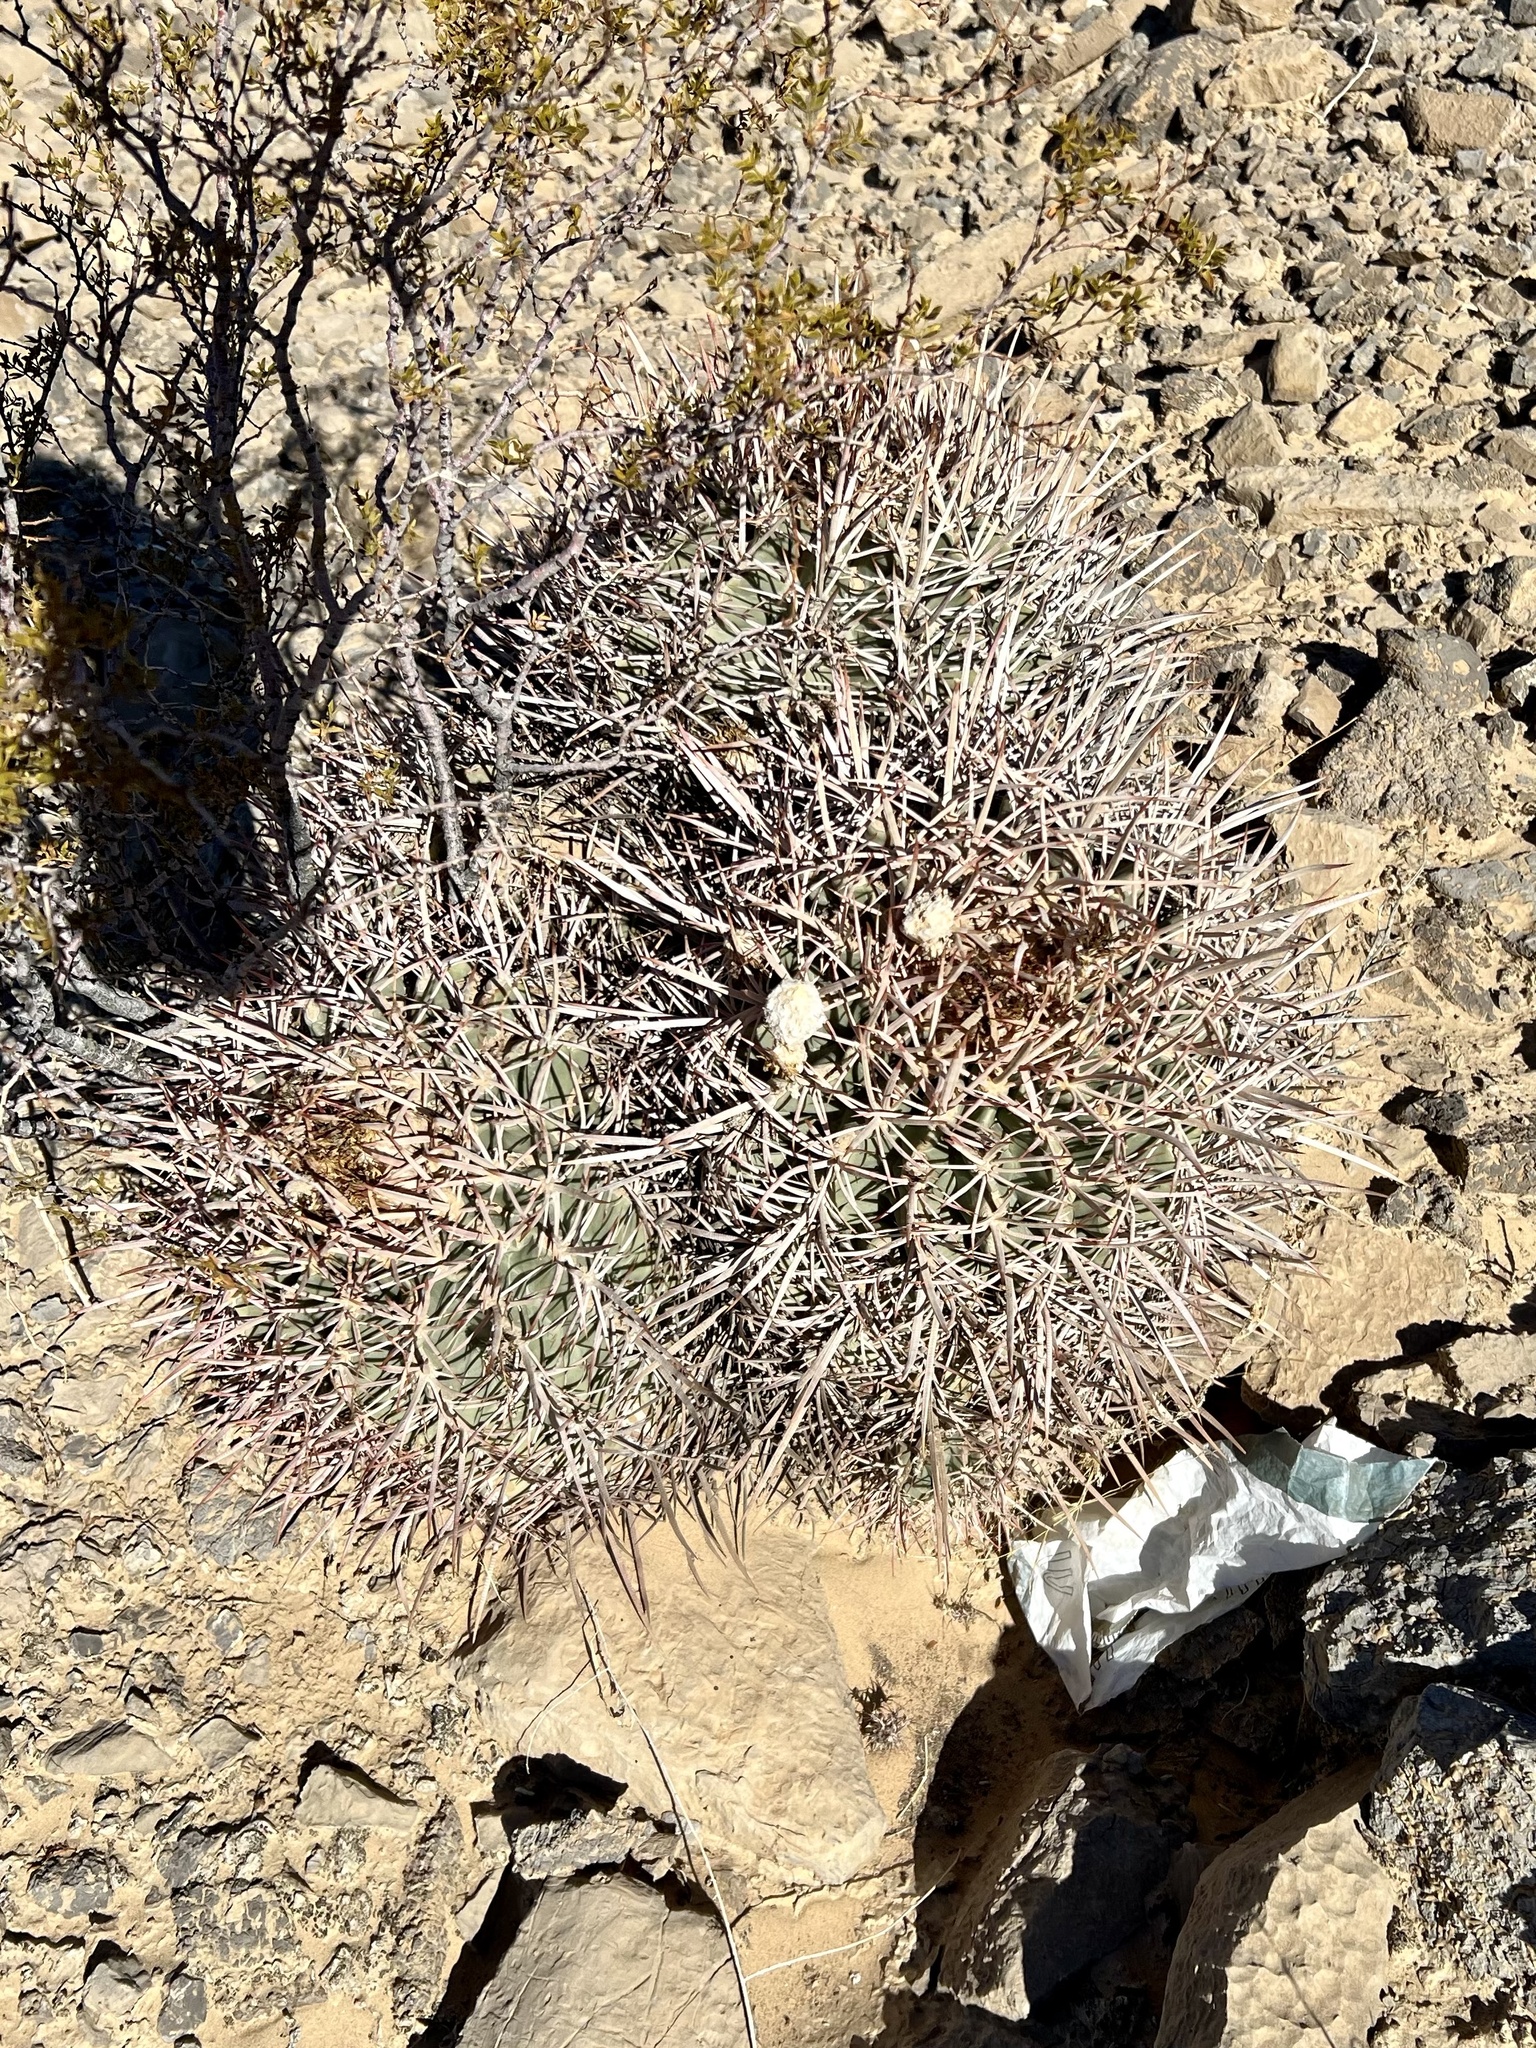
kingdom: Plantae
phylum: Tracheophyta
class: Magnoliopsida
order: Caryophyllales
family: Cactaceae
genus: Echinocactus
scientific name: Echinocactus polycephalus
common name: Cottontop cactus
